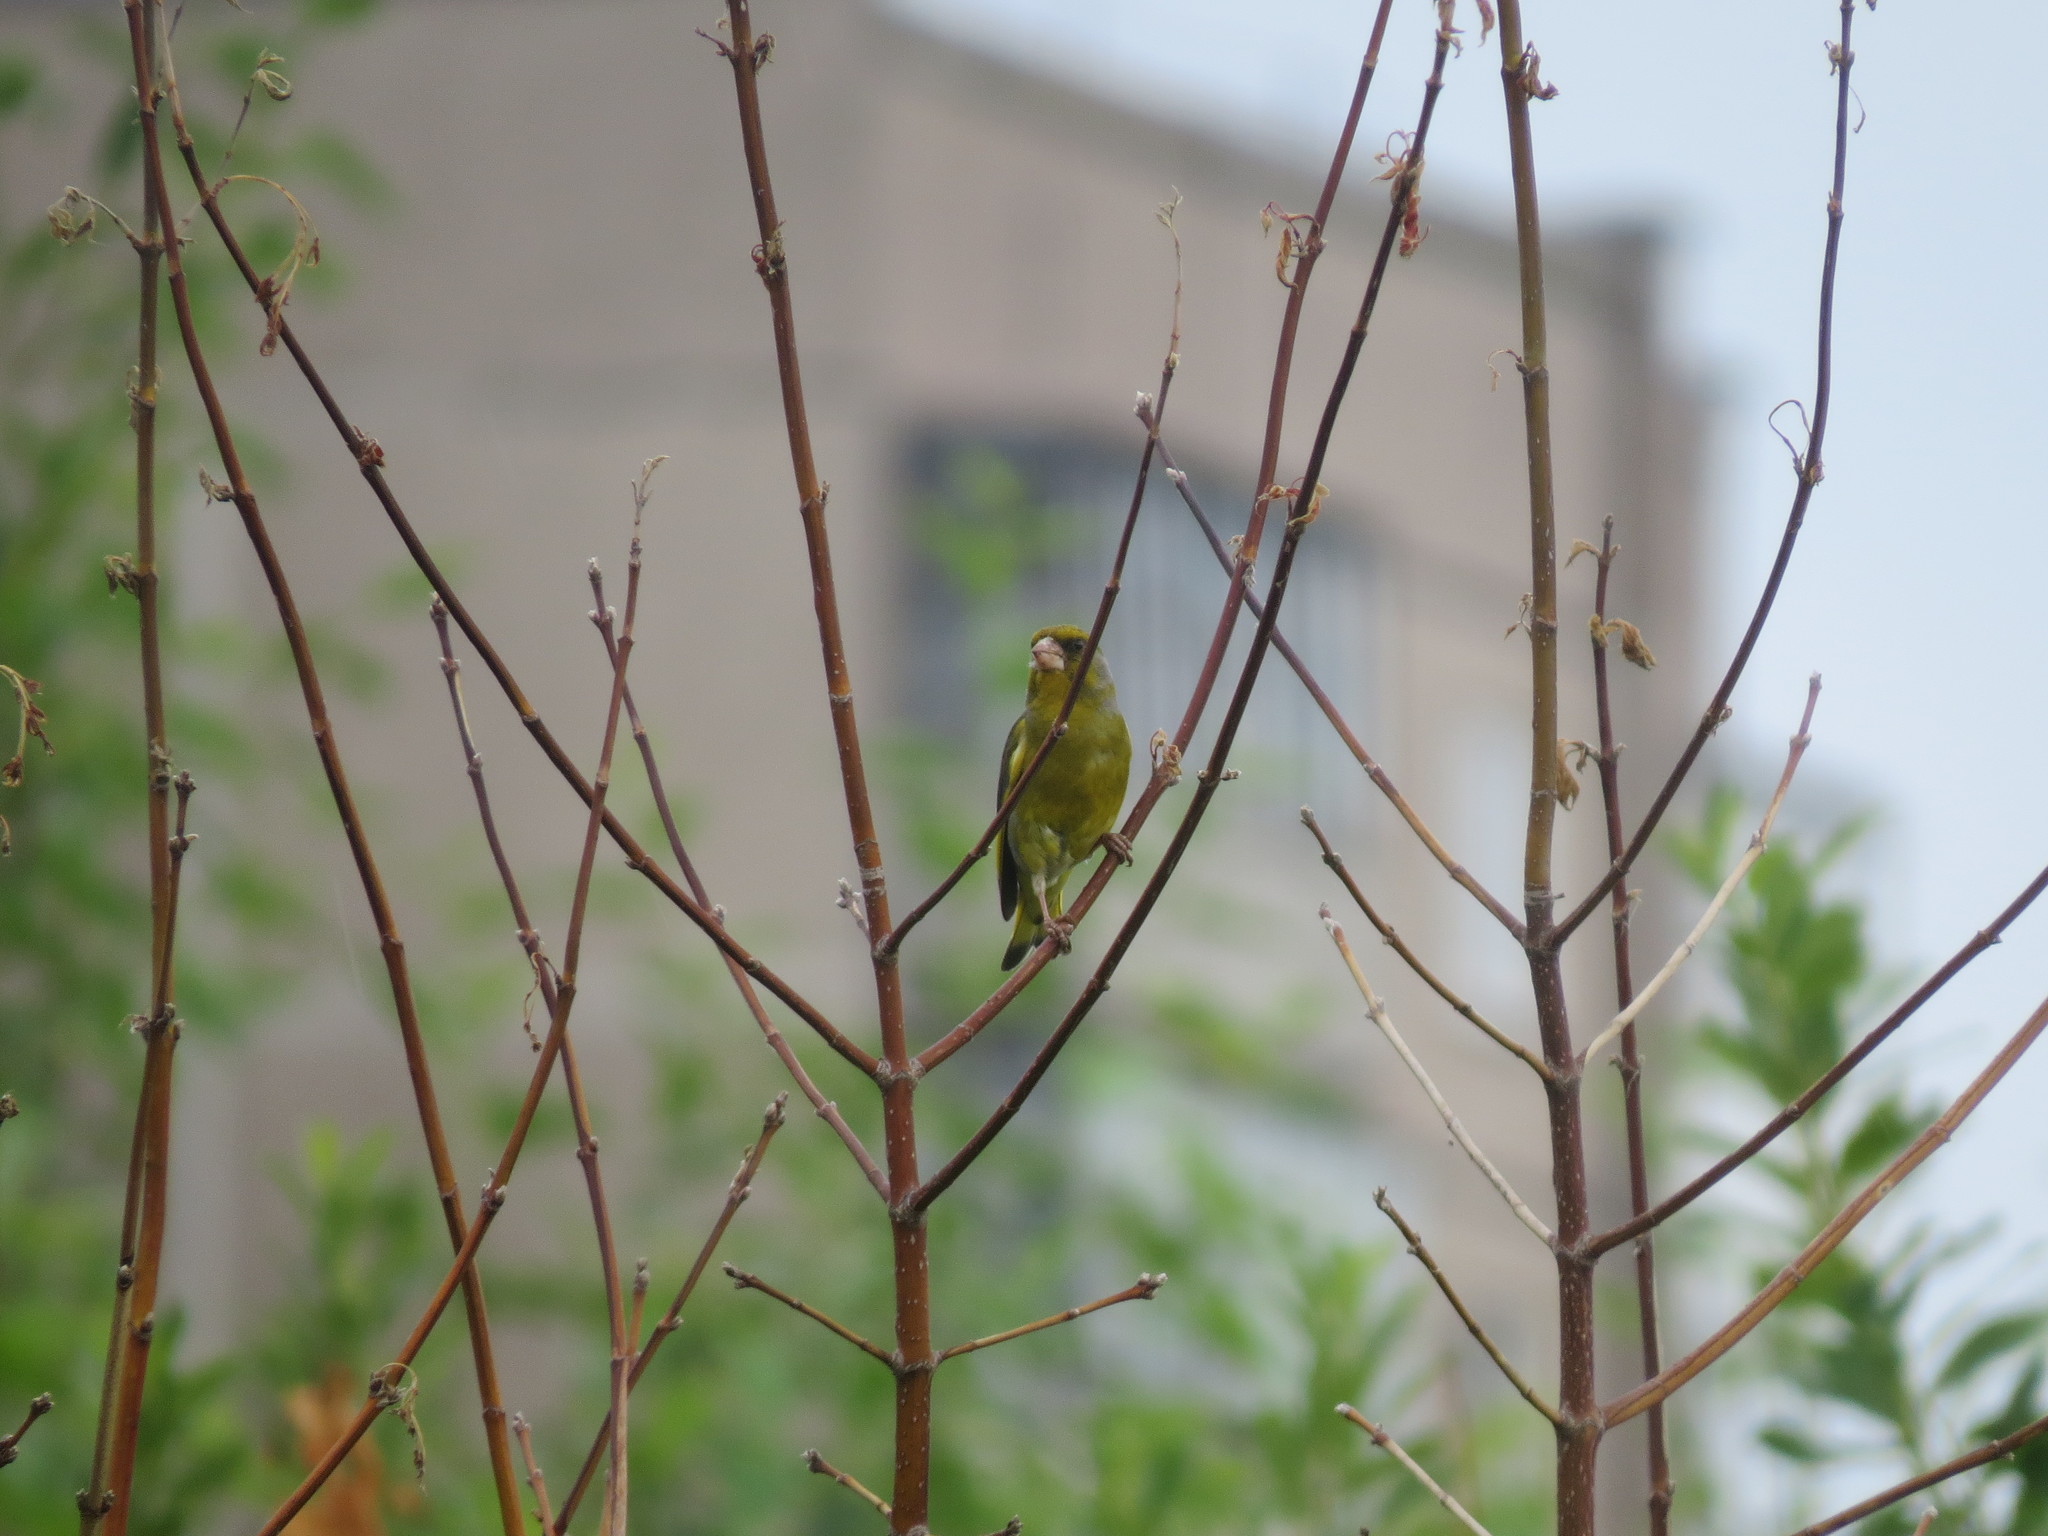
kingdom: Plantae
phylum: Tracheophyta
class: Liliopsida
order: Poales
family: Poaceae
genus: Chloris
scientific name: Chloris chloris
